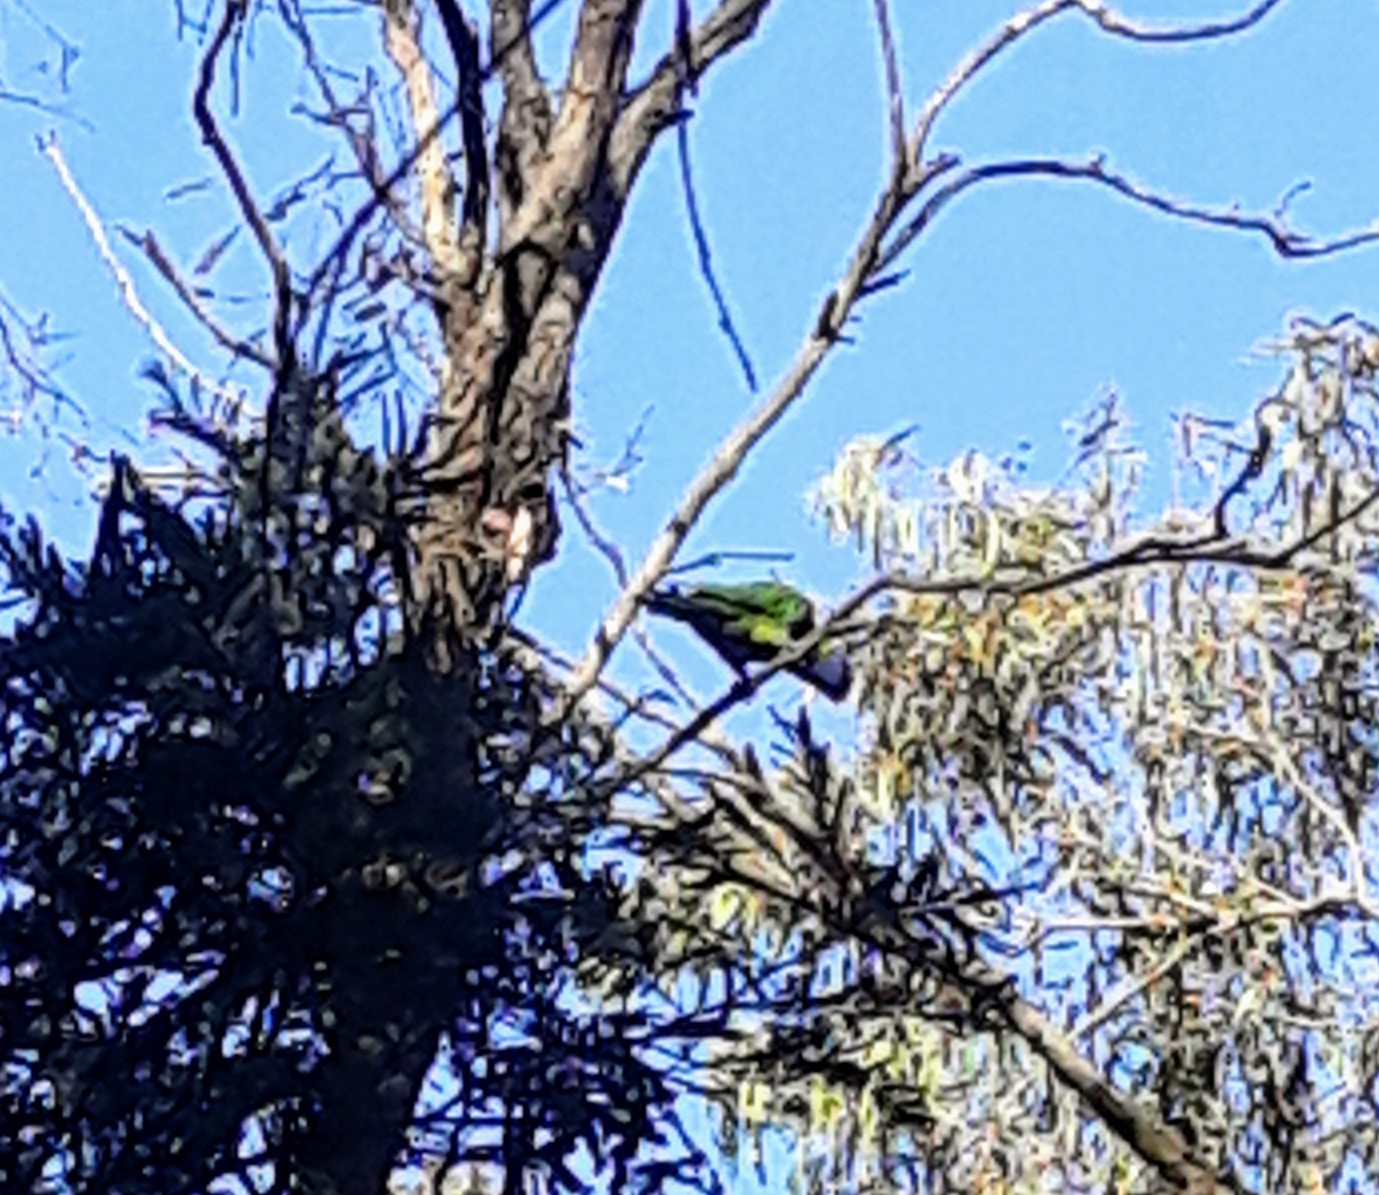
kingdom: Animalia
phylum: Chordata
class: Aves
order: Psittaciformes
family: Psittacidae
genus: Trichoglossus
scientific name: Trichoglossus haematodus
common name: Coconut lorikeet
